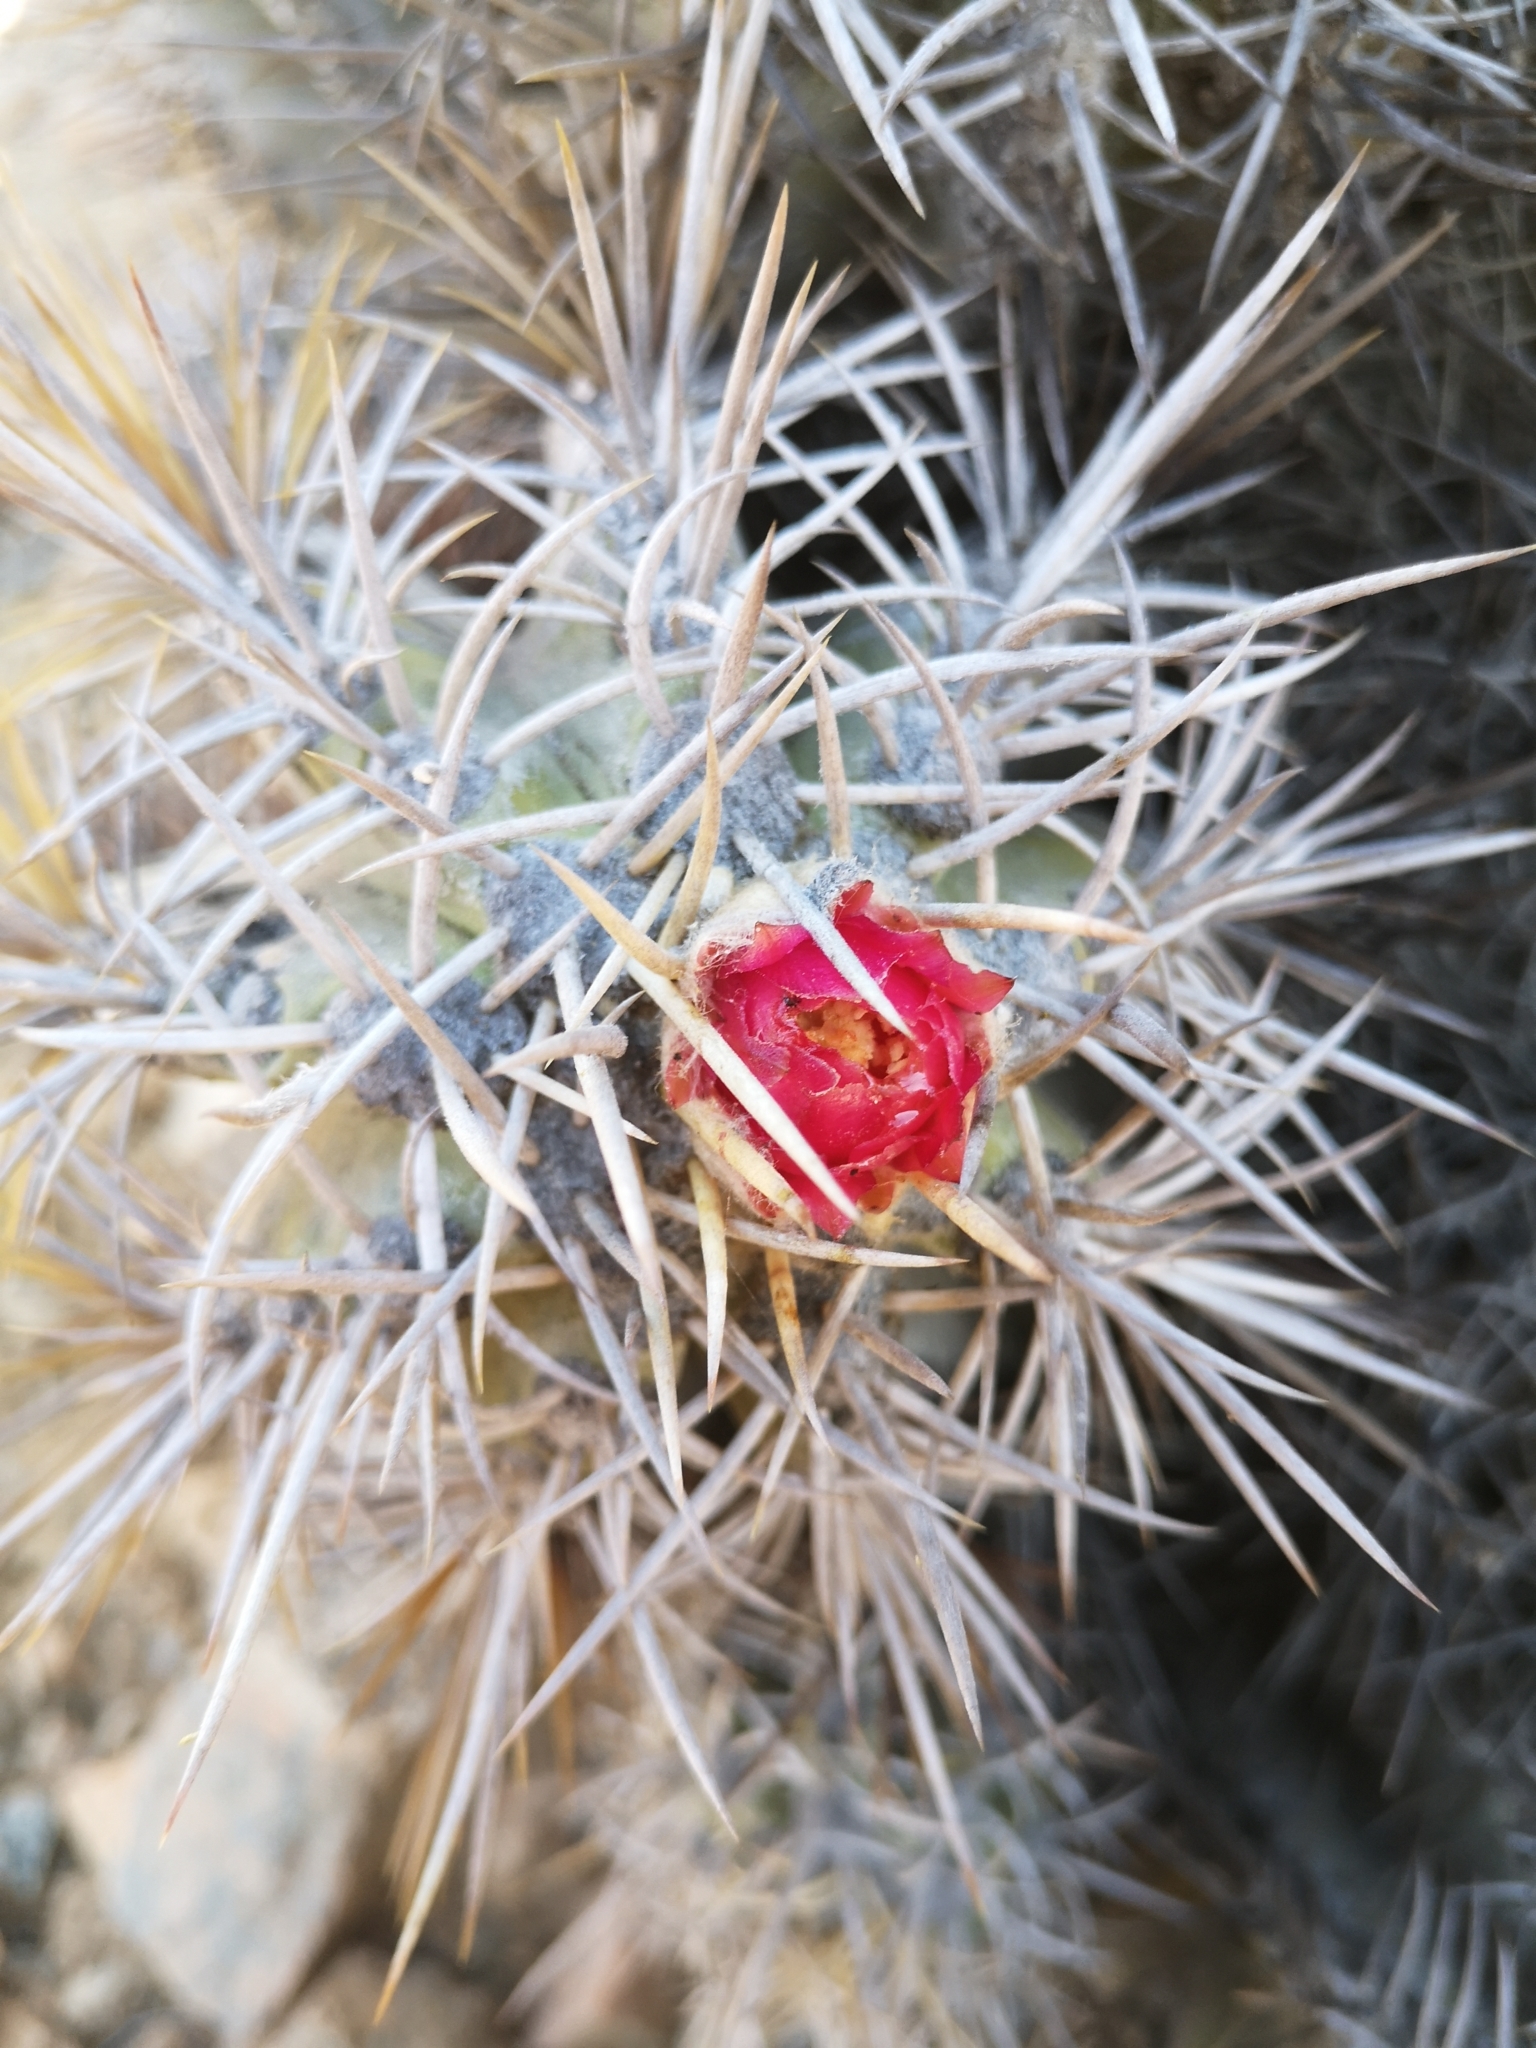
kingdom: Plantae
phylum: Tracheophyta
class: Magnoliopsida
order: Caryophyllales
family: Cactaceae
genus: Copiapoa
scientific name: Copiapoa solaris
